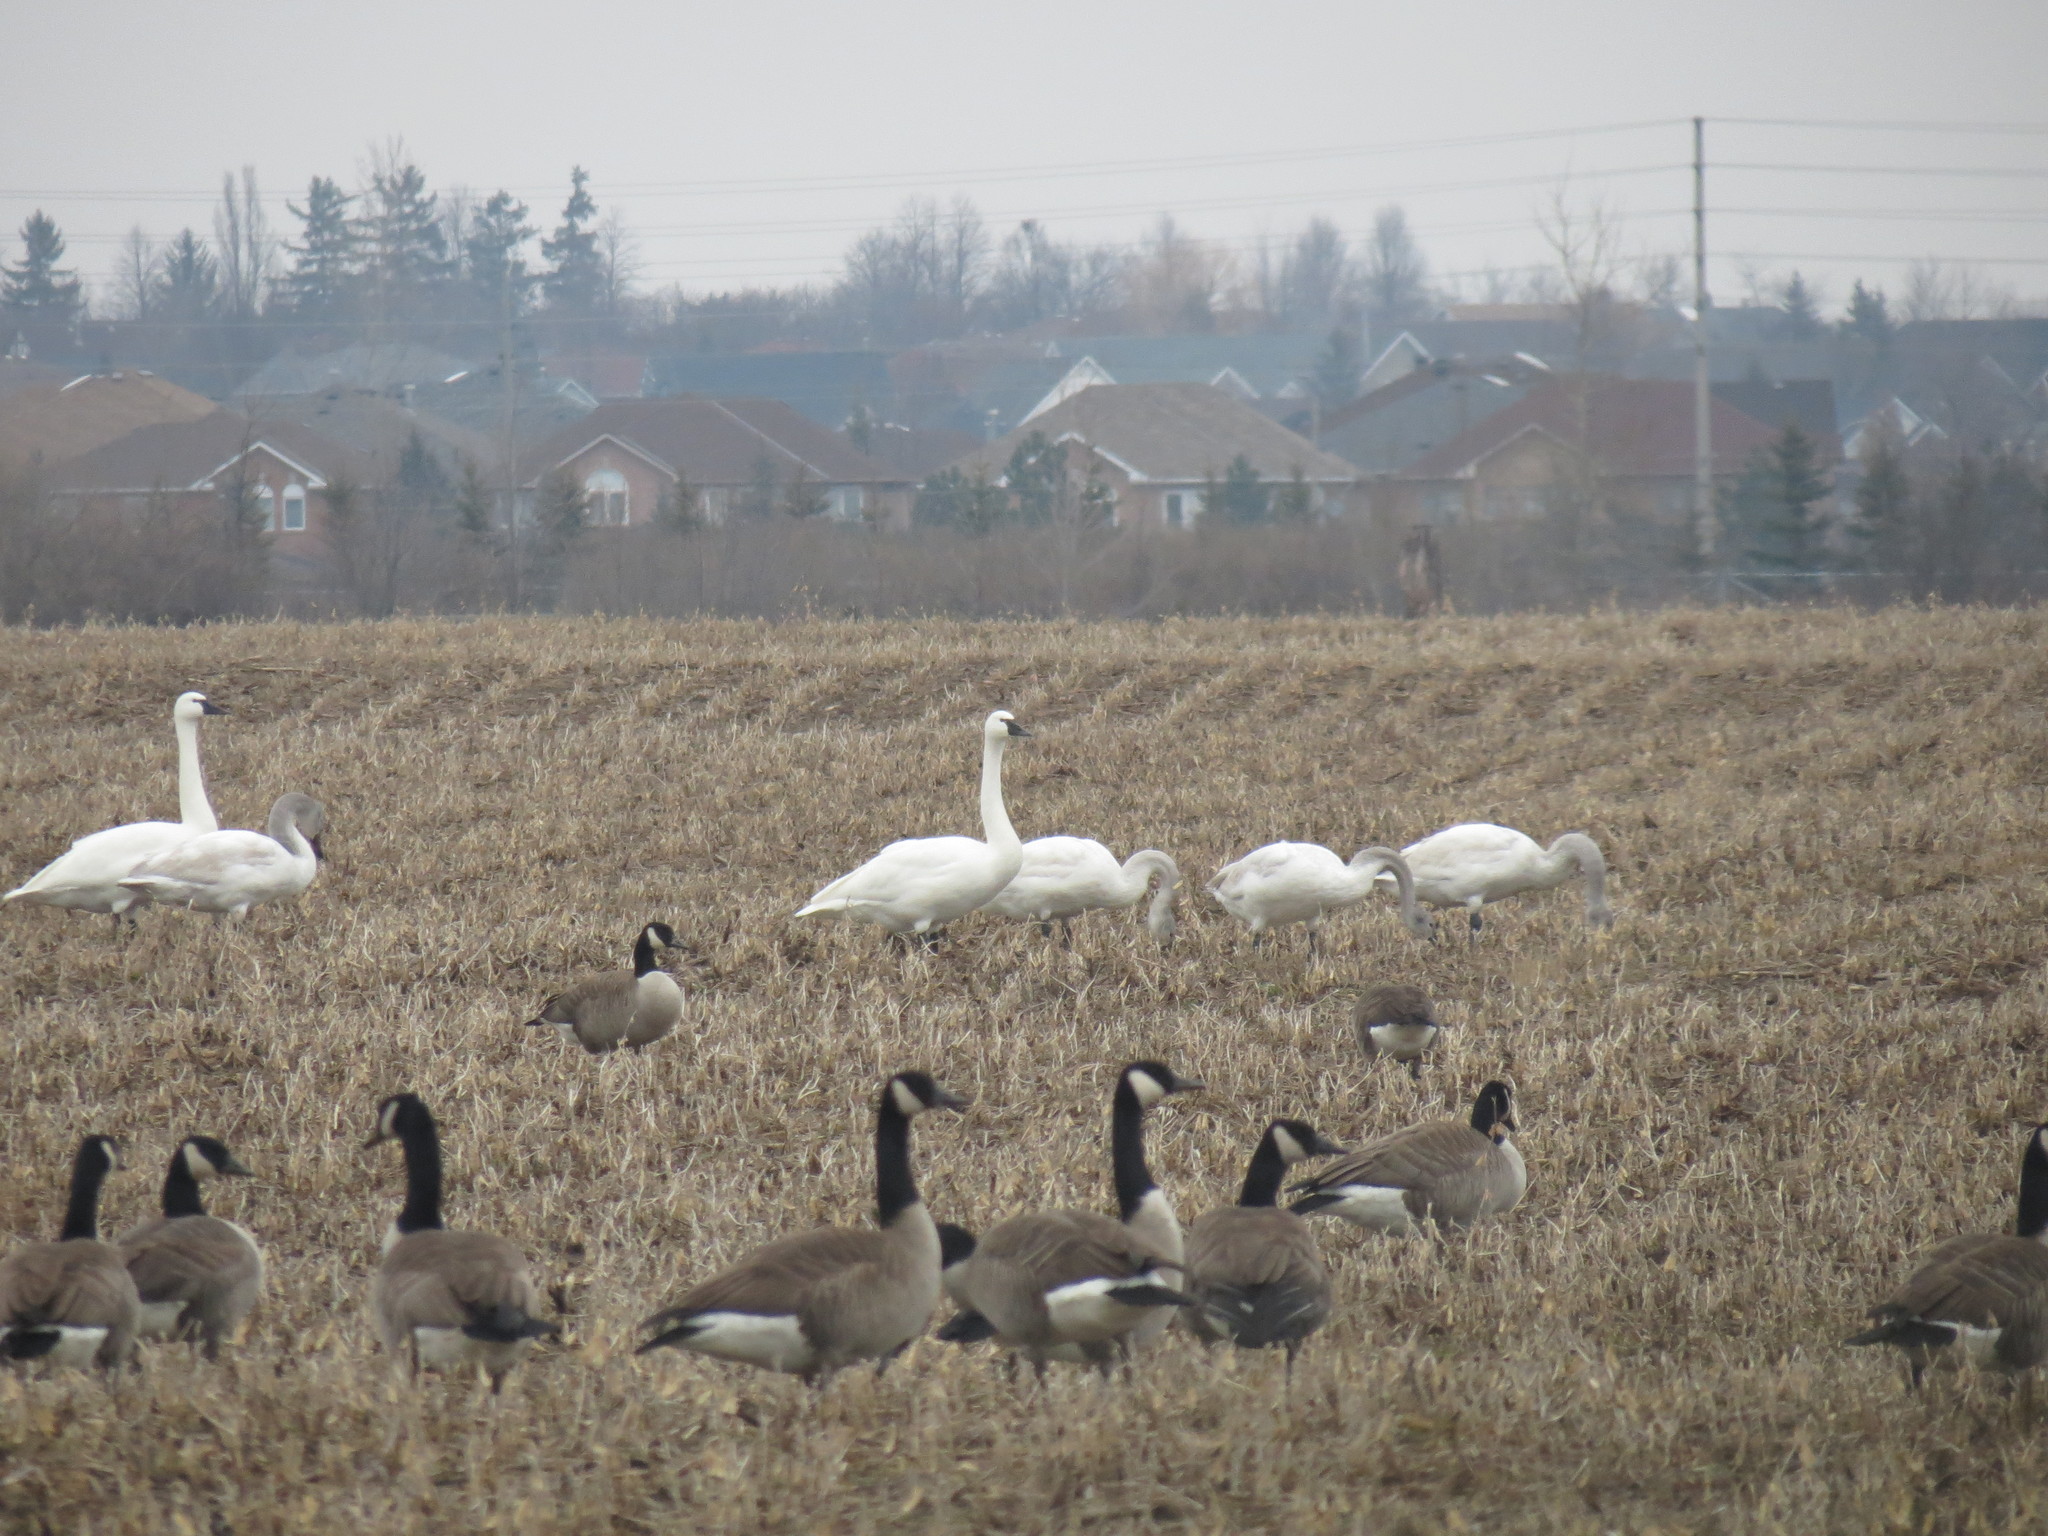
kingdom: Animalia
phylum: Chordata
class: Aves
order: Anseriformes
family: Anatidae
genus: Cygnus
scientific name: Cygnus columbianus
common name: Tundra swan
